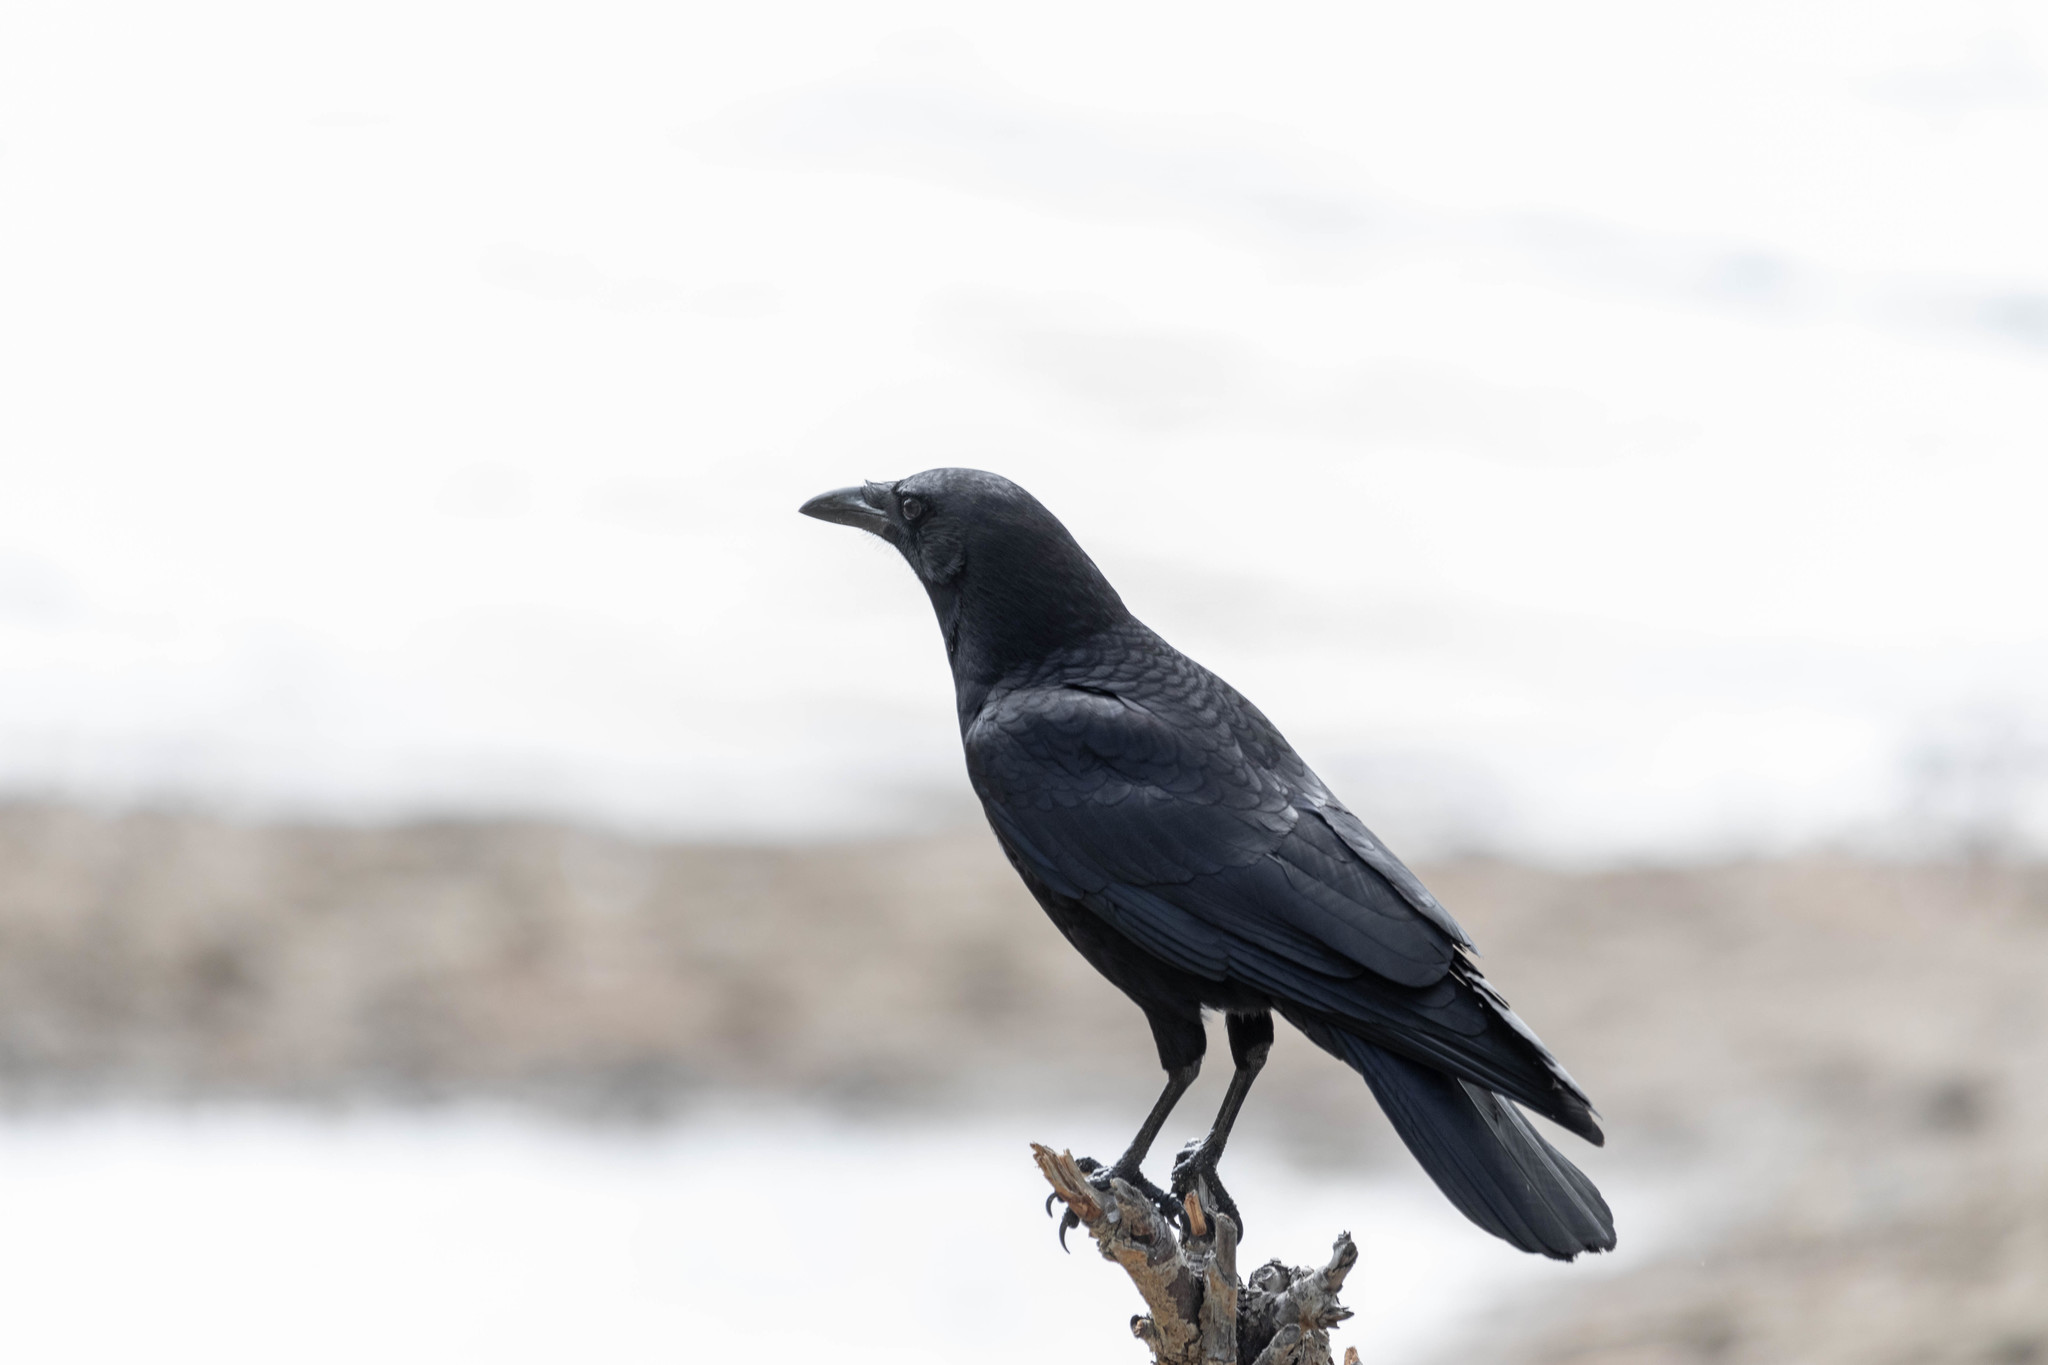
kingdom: Animalia
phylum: Chordata
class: Aves
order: Passeriformes
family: Corvidae
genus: Corvus
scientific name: Corvus brachyrhynchos
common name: American crow
